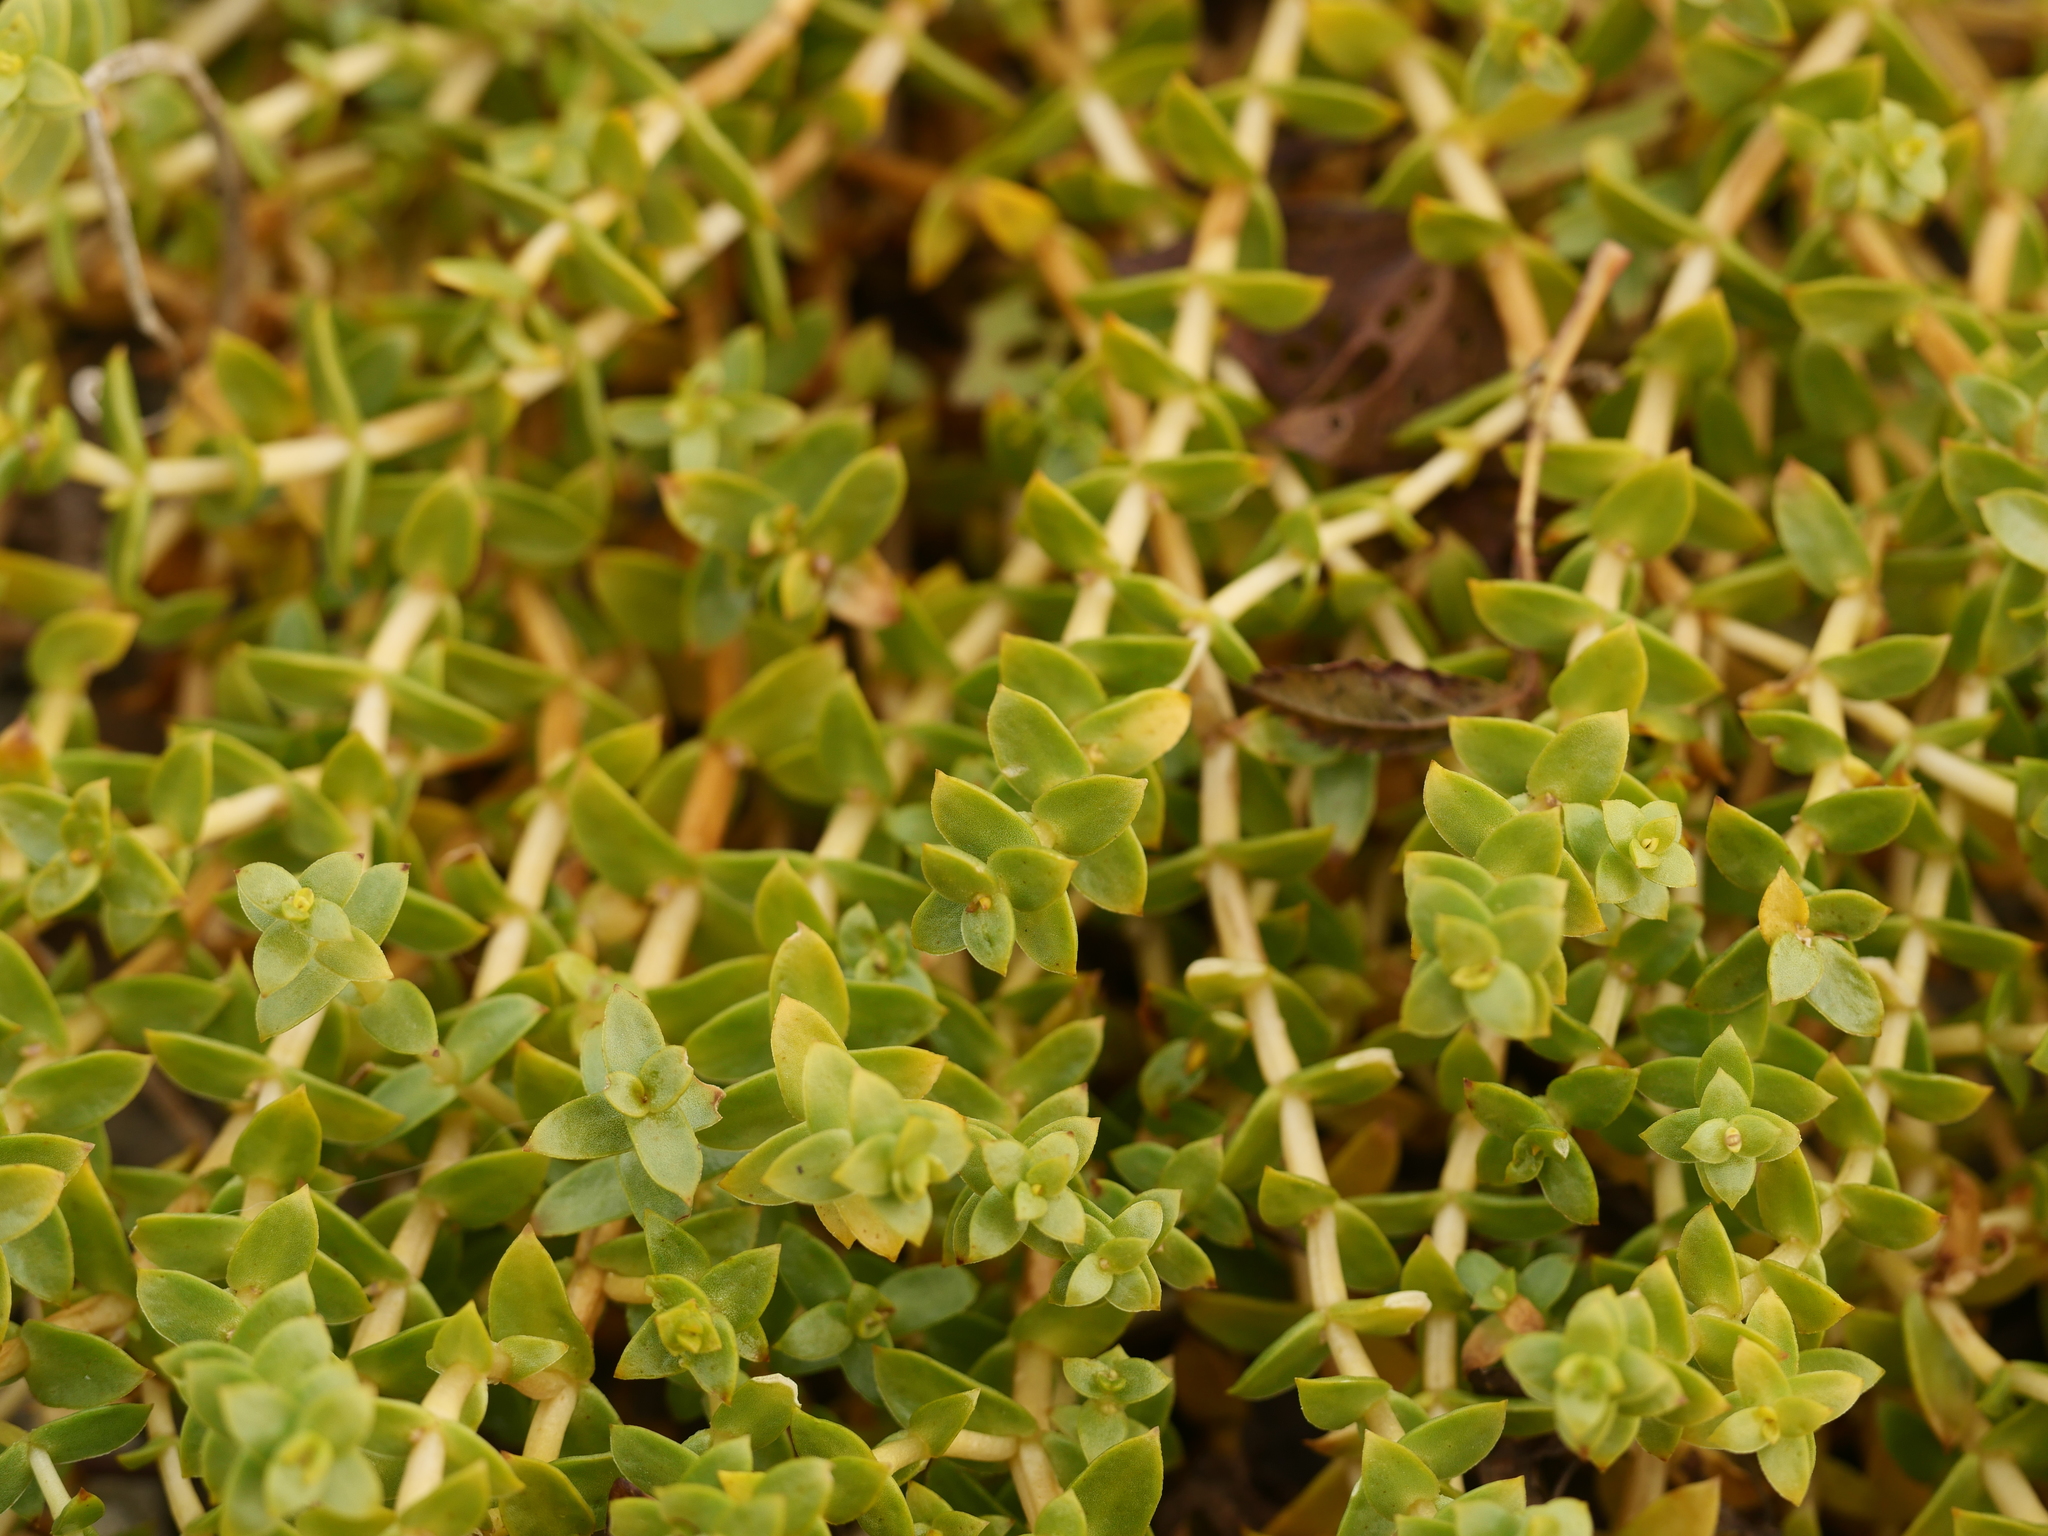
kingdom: Plantae
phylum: Tracheophyta
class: Magnoliopsida
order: Caryophyllales
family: Caryophyllaceae
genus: Honckenya
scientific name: Honckenya peploides
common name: Sea sandwort
